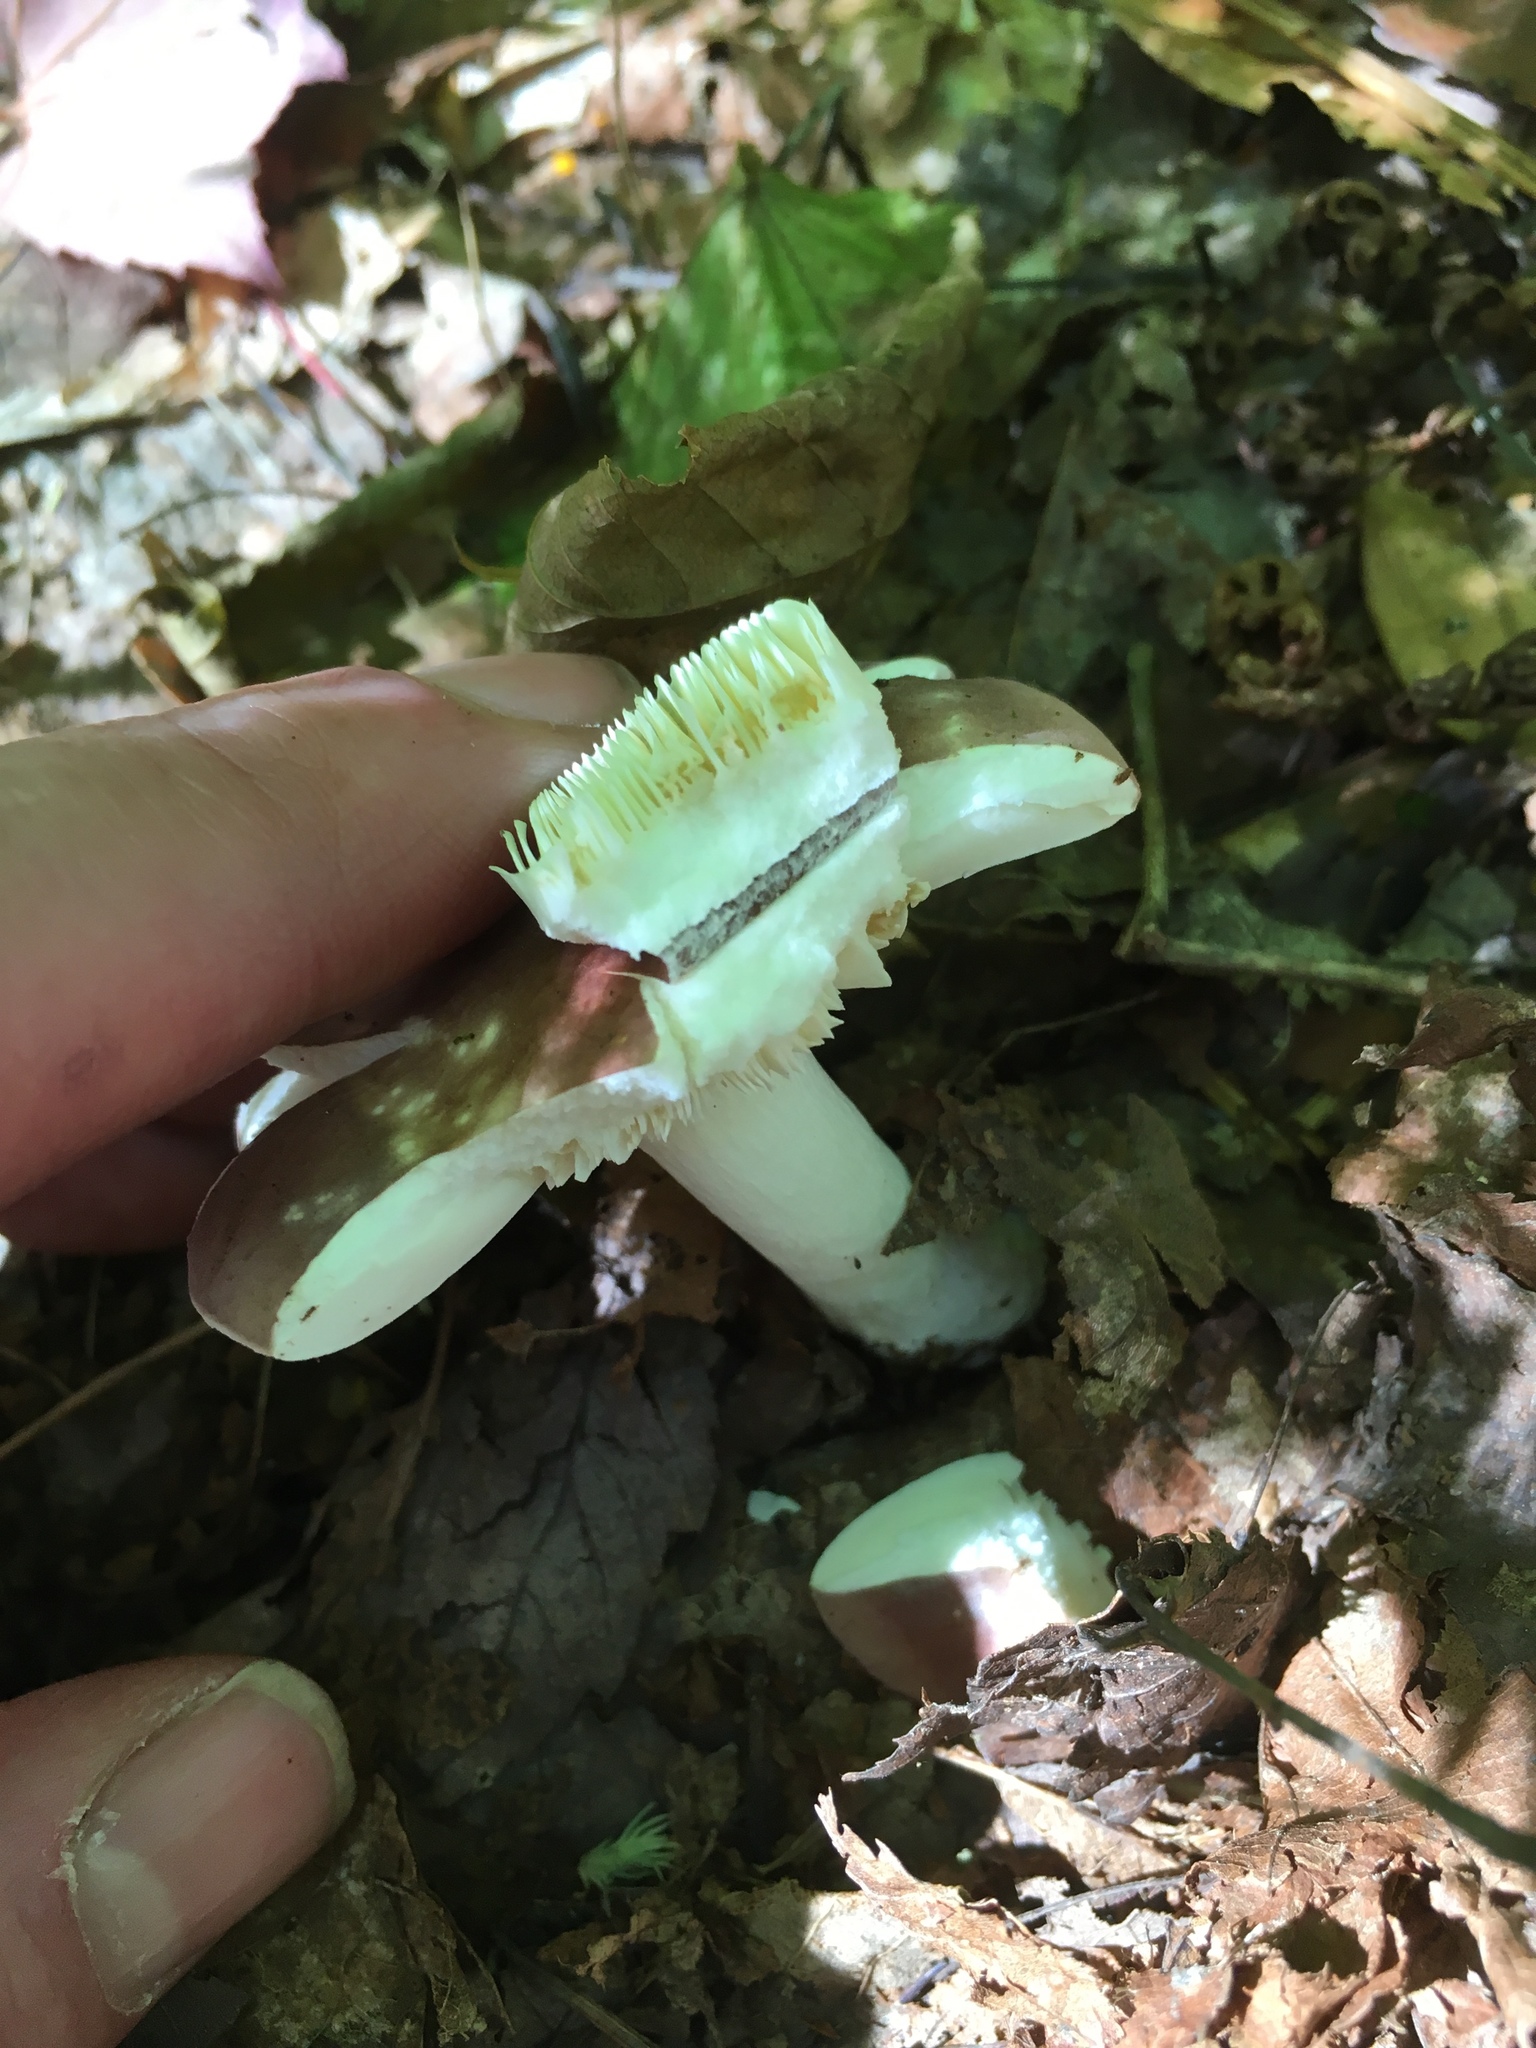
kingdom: Fungi
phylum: Basidiomycota
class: Agaricomycetes
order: Russulales
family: Russulaceae
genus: Russula
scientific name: Russula
